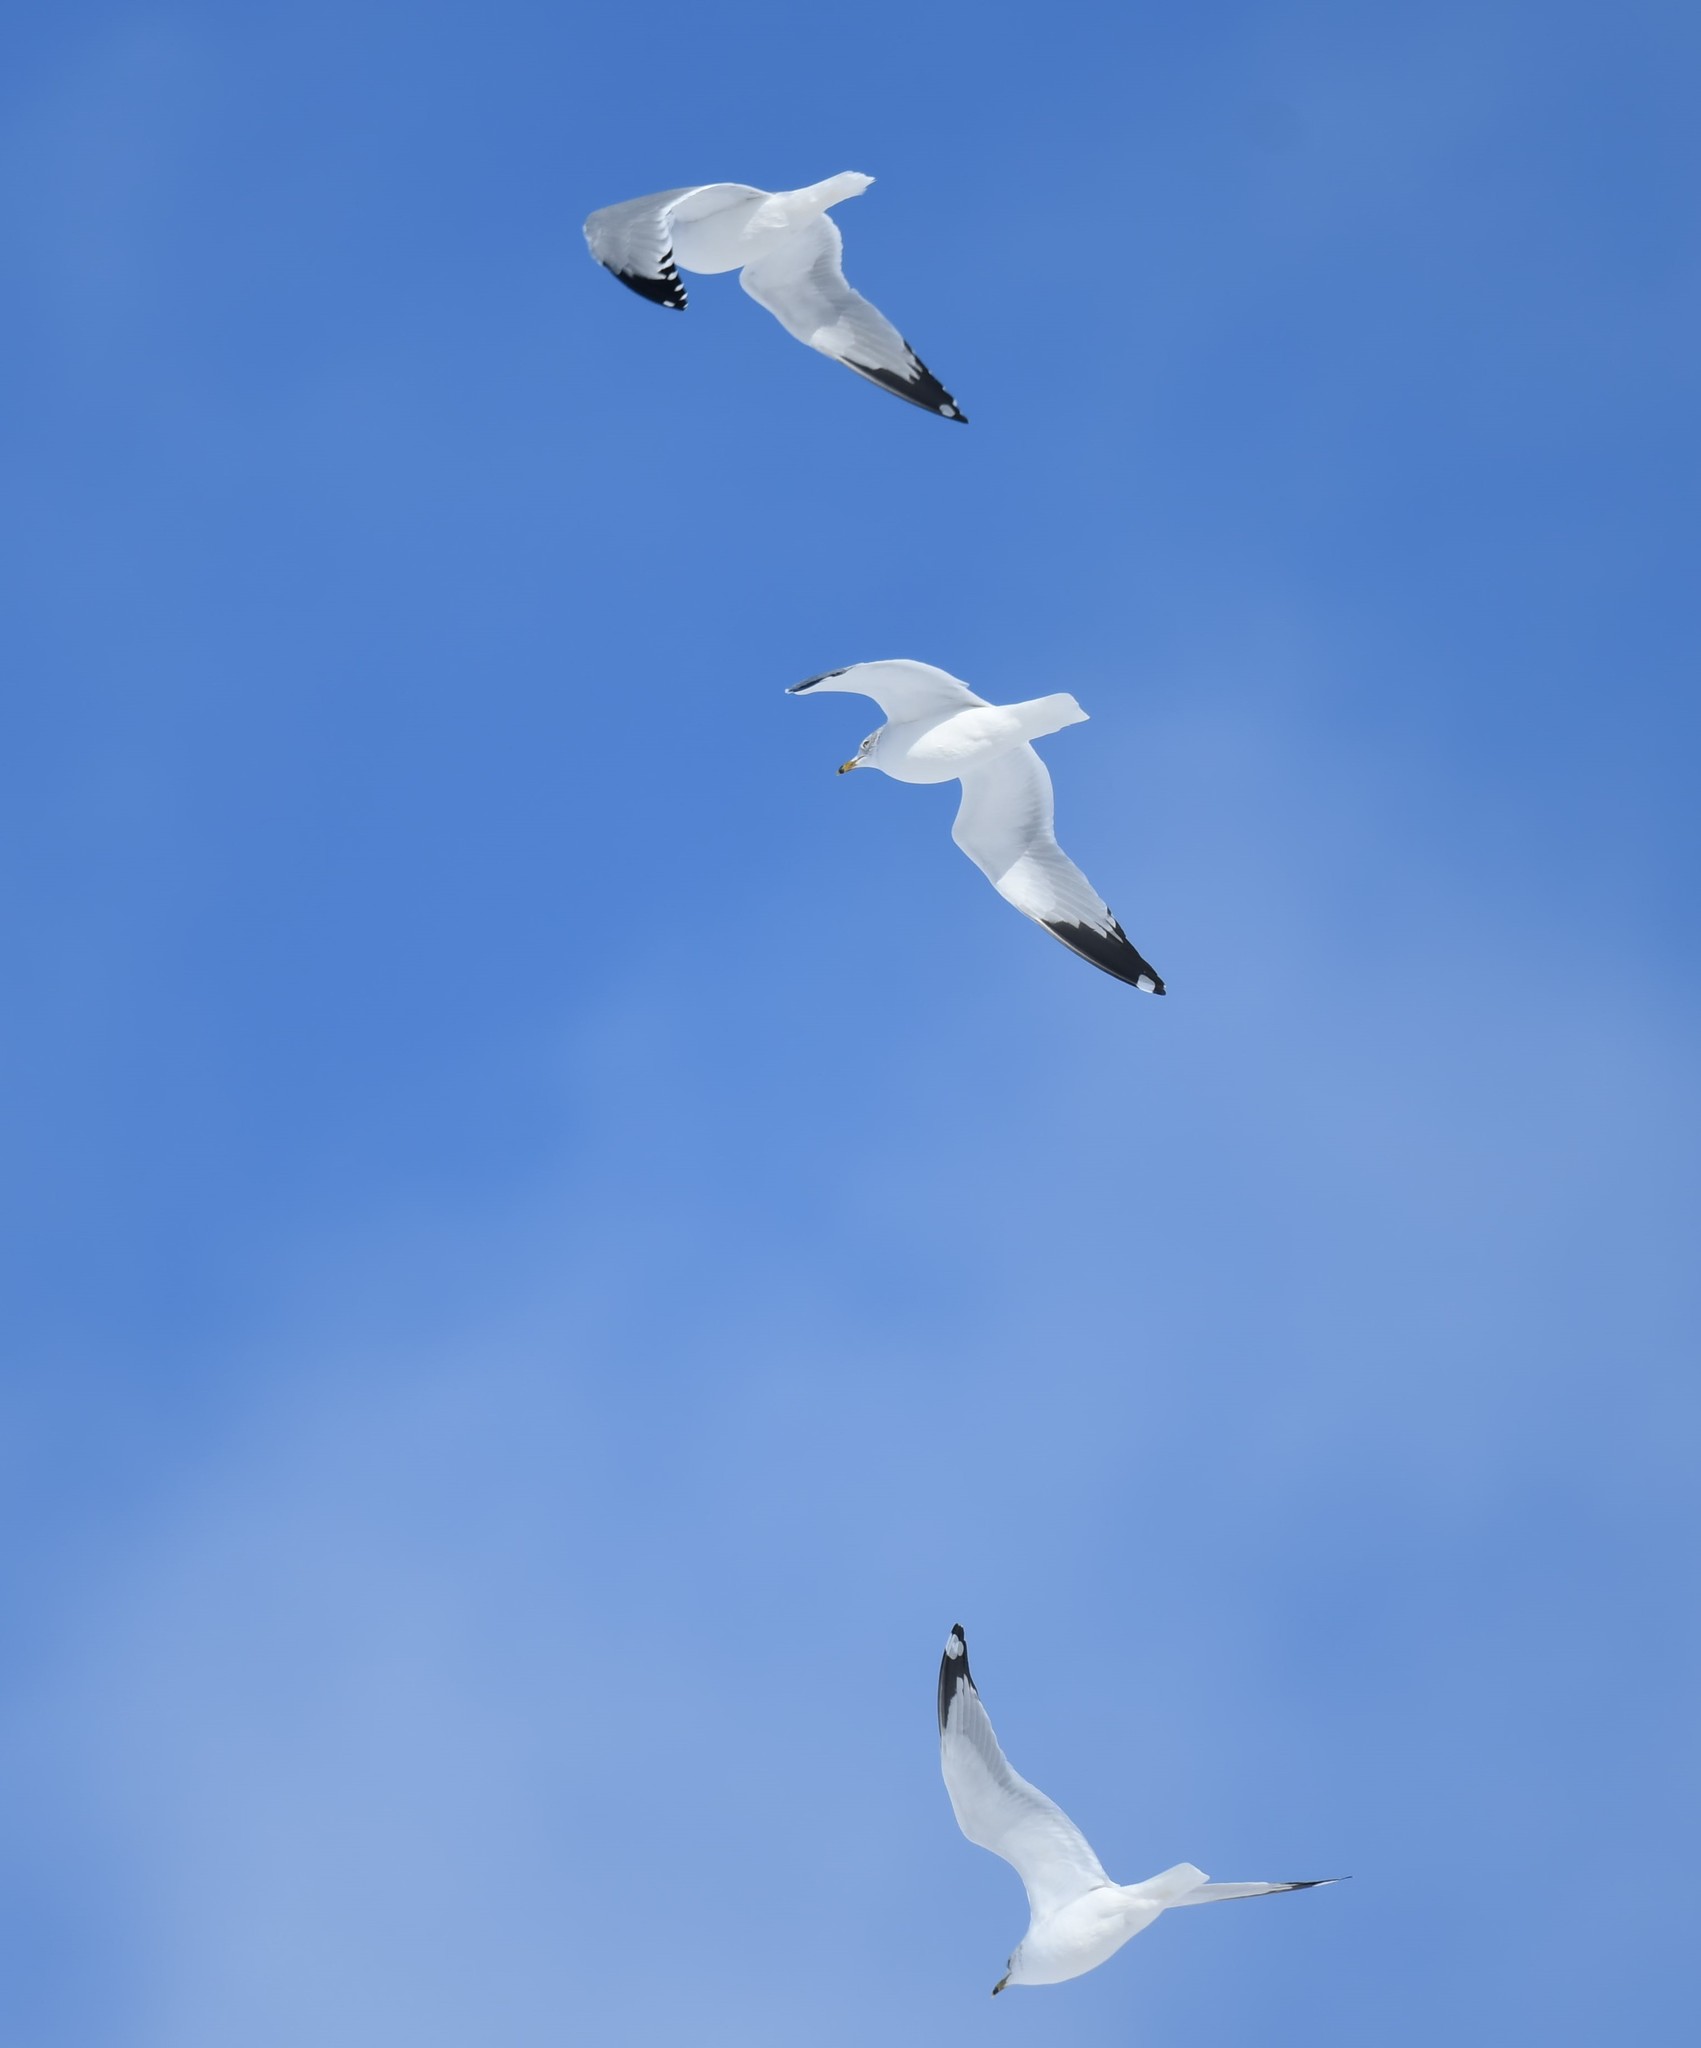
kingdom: Animalia
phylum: Chordata
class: Aves
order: Charadriiformes
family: Laridae
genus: Larus
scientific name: Larus delawarensis
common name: Ring-billed gull
